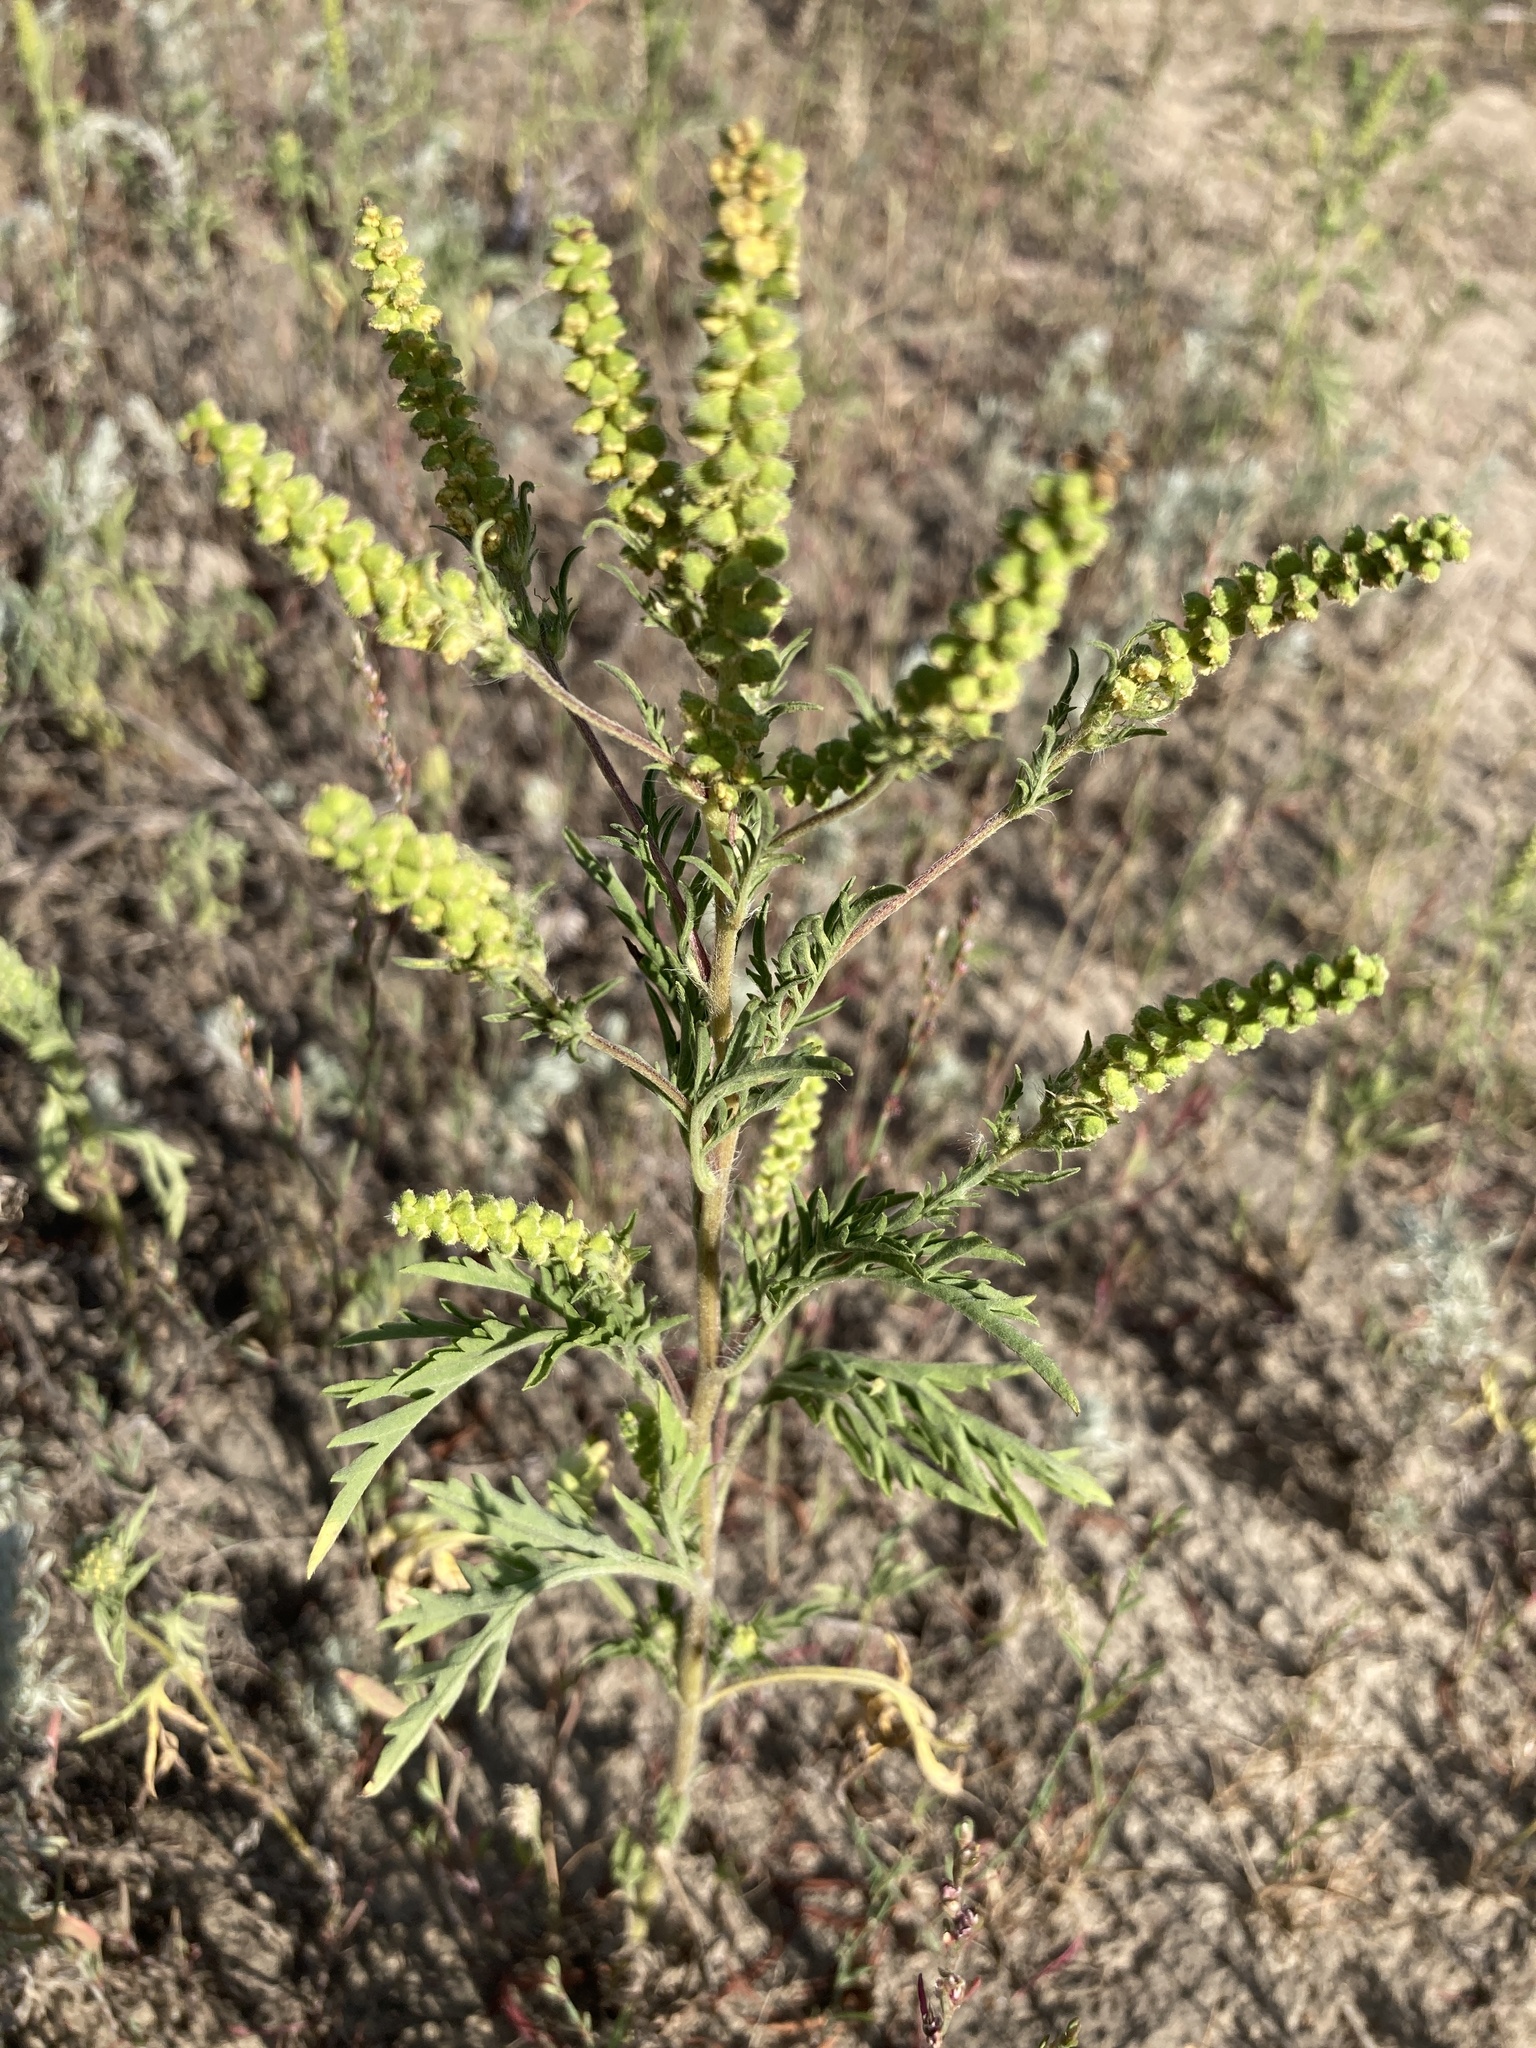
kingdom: Plantae
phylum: Tracheophyta
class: Magnoliopsida
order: Asterales
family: Asteraceae
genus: Ambrosia
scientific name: Ambrosia artemisiifolia
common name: Annual ragweed
